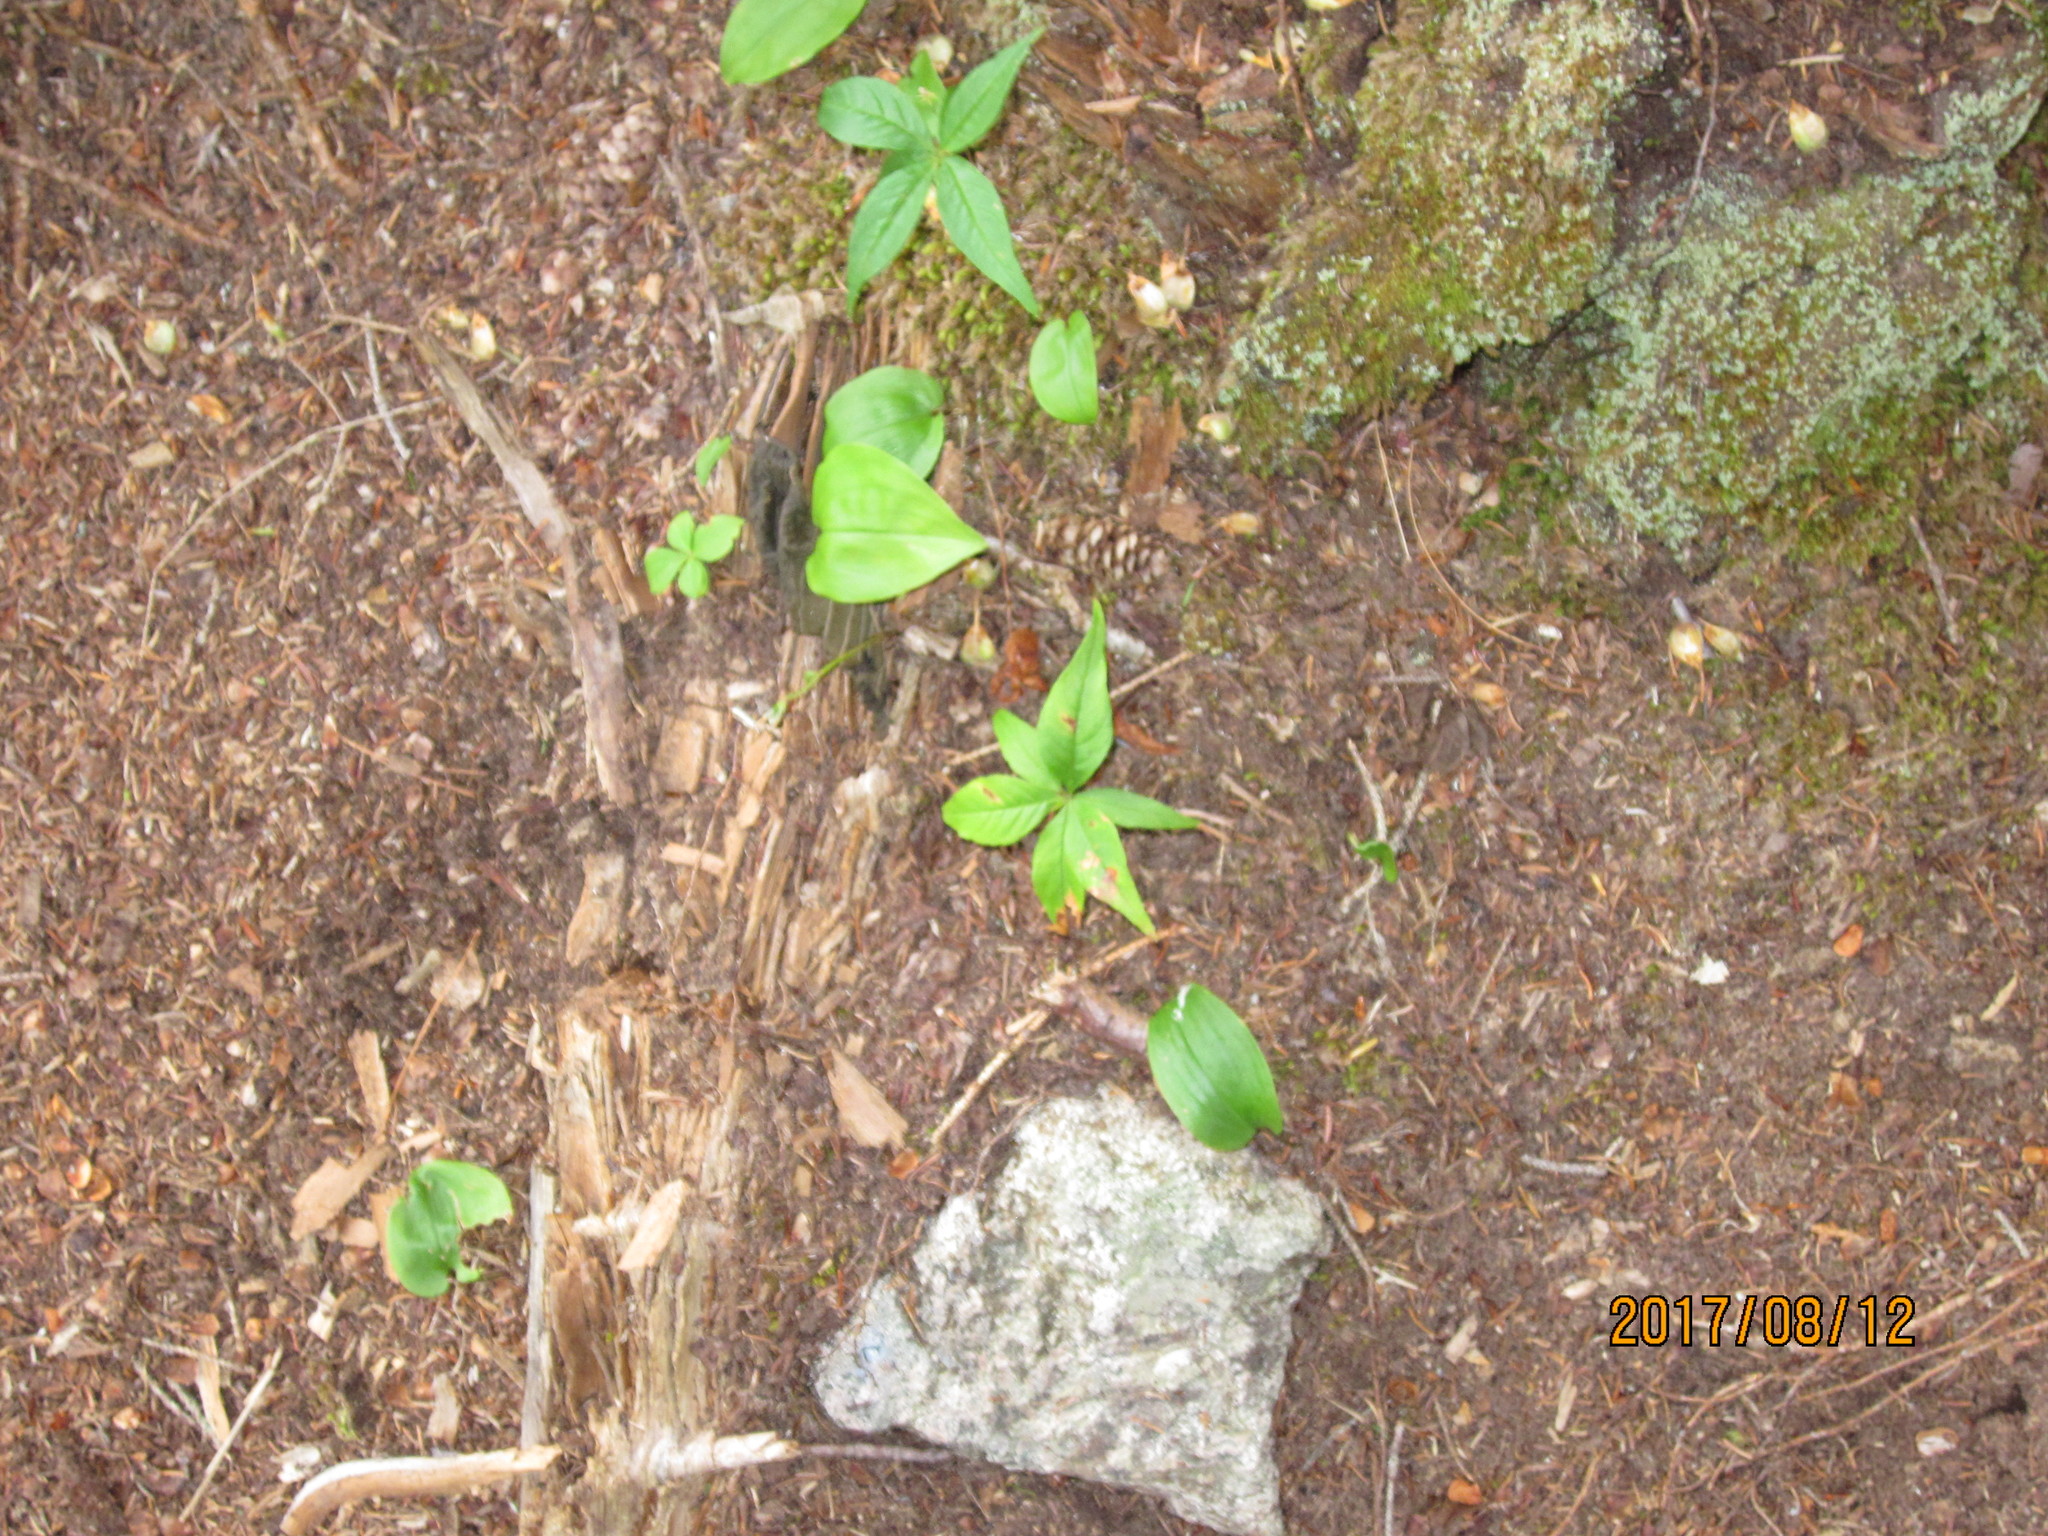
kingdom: Plantae
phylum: Tracheophyta
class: Magnoliopsida
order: Ericales
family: Primulaceae
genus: Lysimachia
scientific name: Lysimachia borealis
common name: American starflower
